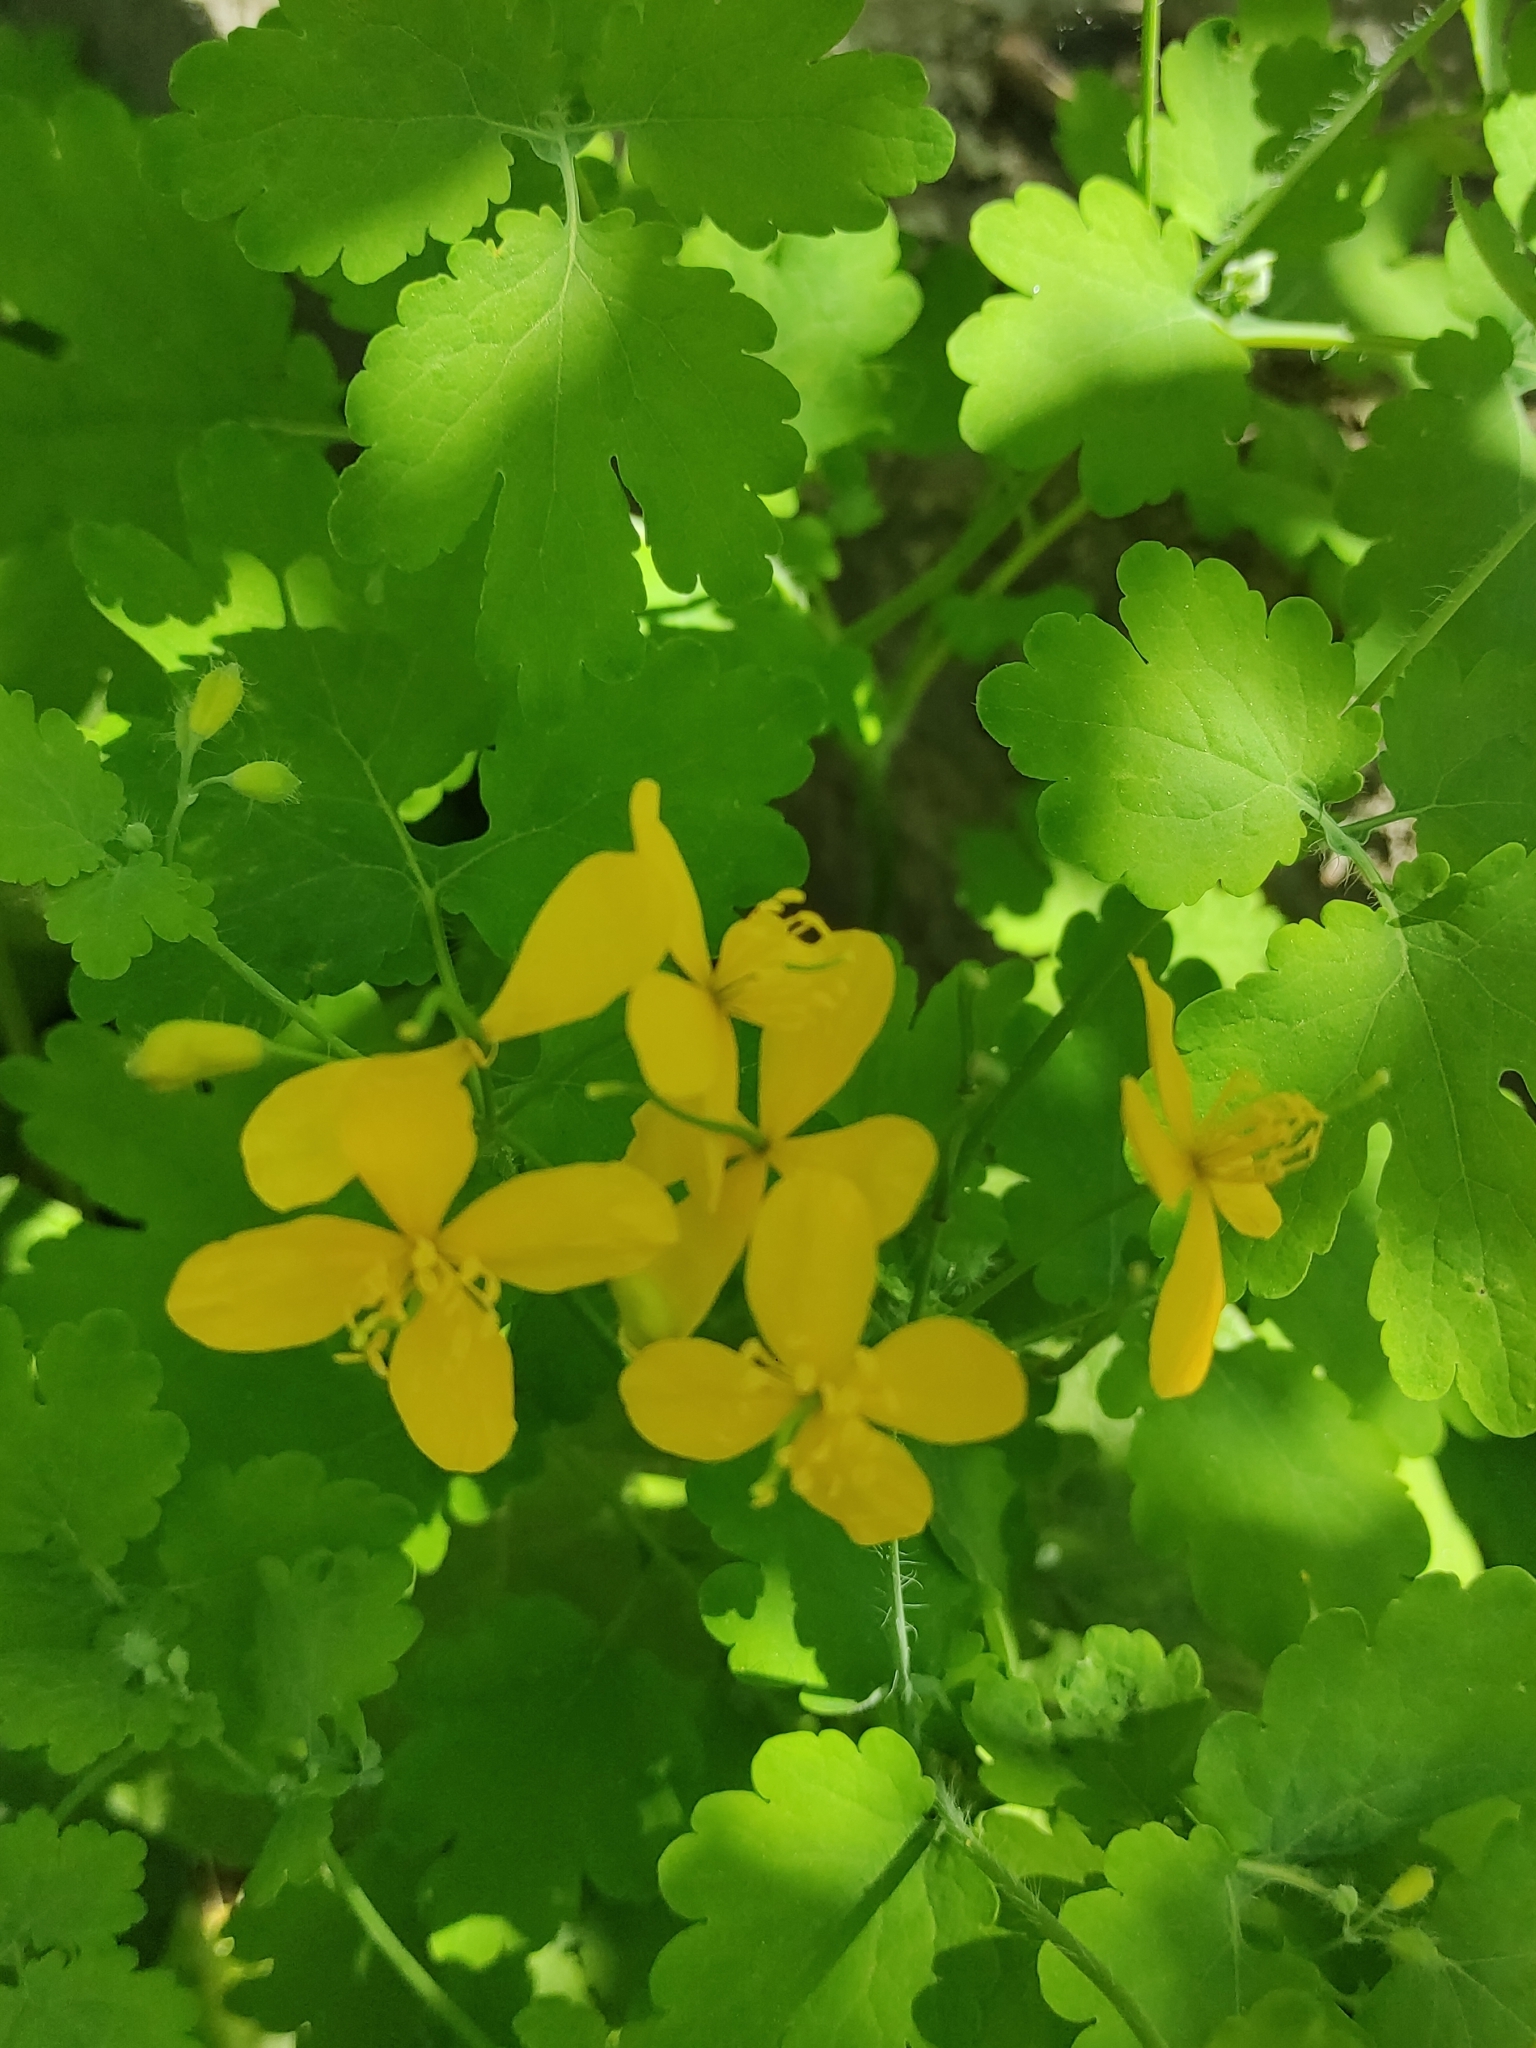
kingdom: Plantae
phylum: Tracheophyta
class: Magnoliopsida
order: Ranunculales
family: Papaveraceae
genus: Chelidonium
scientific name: Chelidonium majus
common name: Greater celandine
